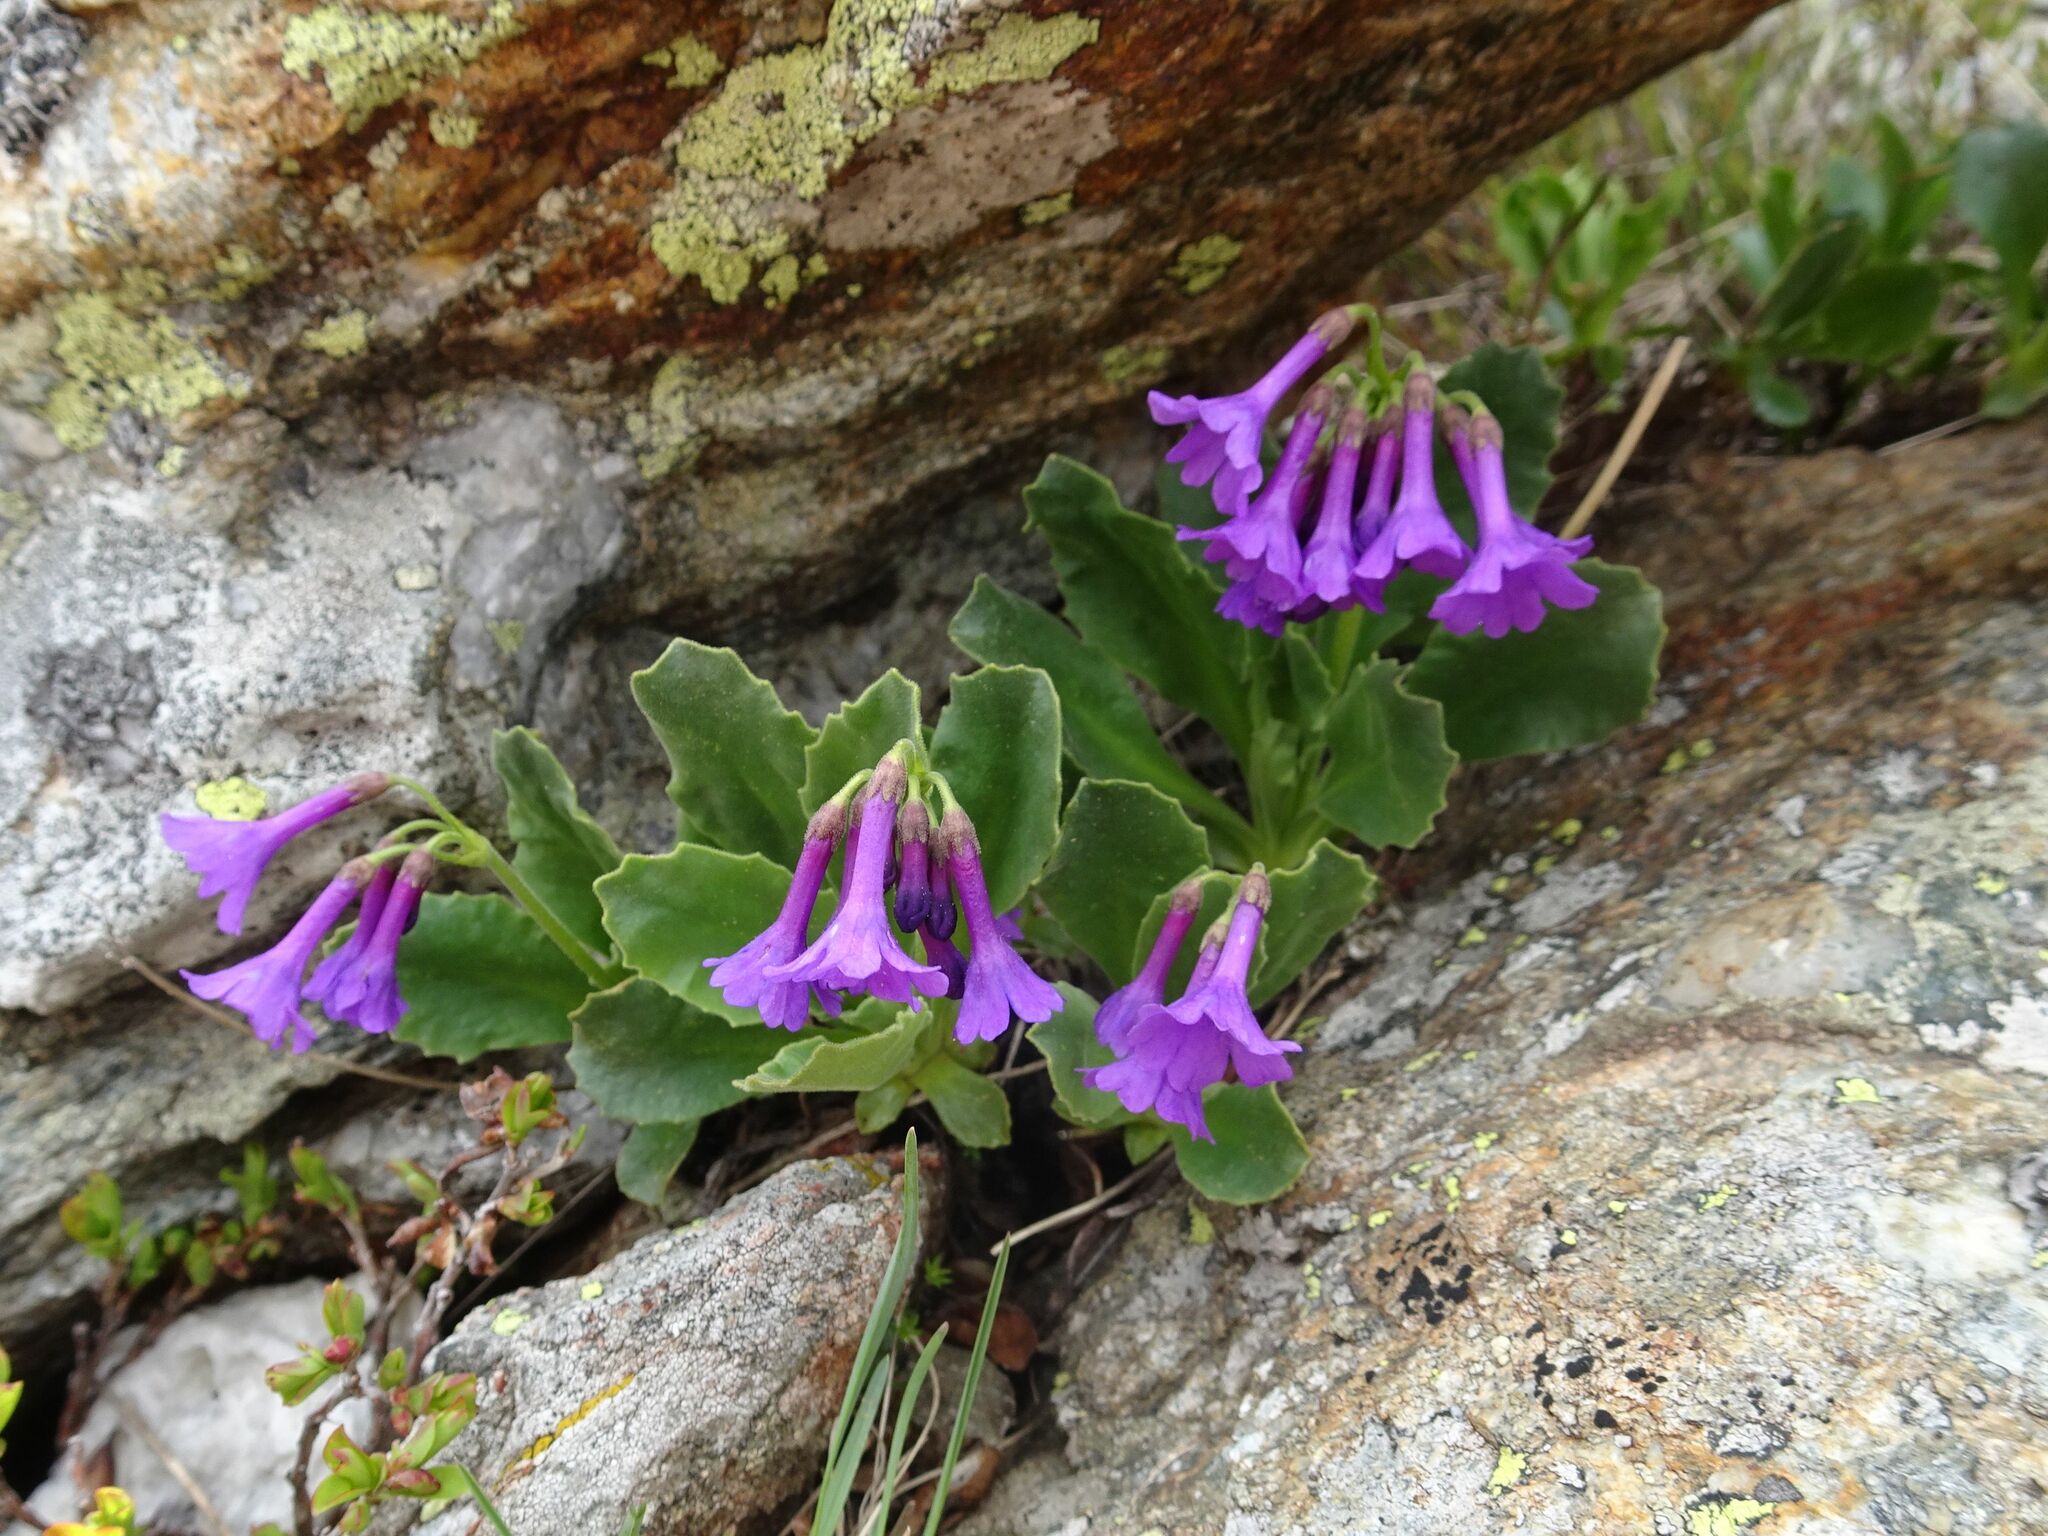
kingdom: Plantae
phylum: Tracheophyta
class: Magnoliopsida
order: Ericales
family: Primulaceae
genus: Primula
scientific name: Primula latifolia
